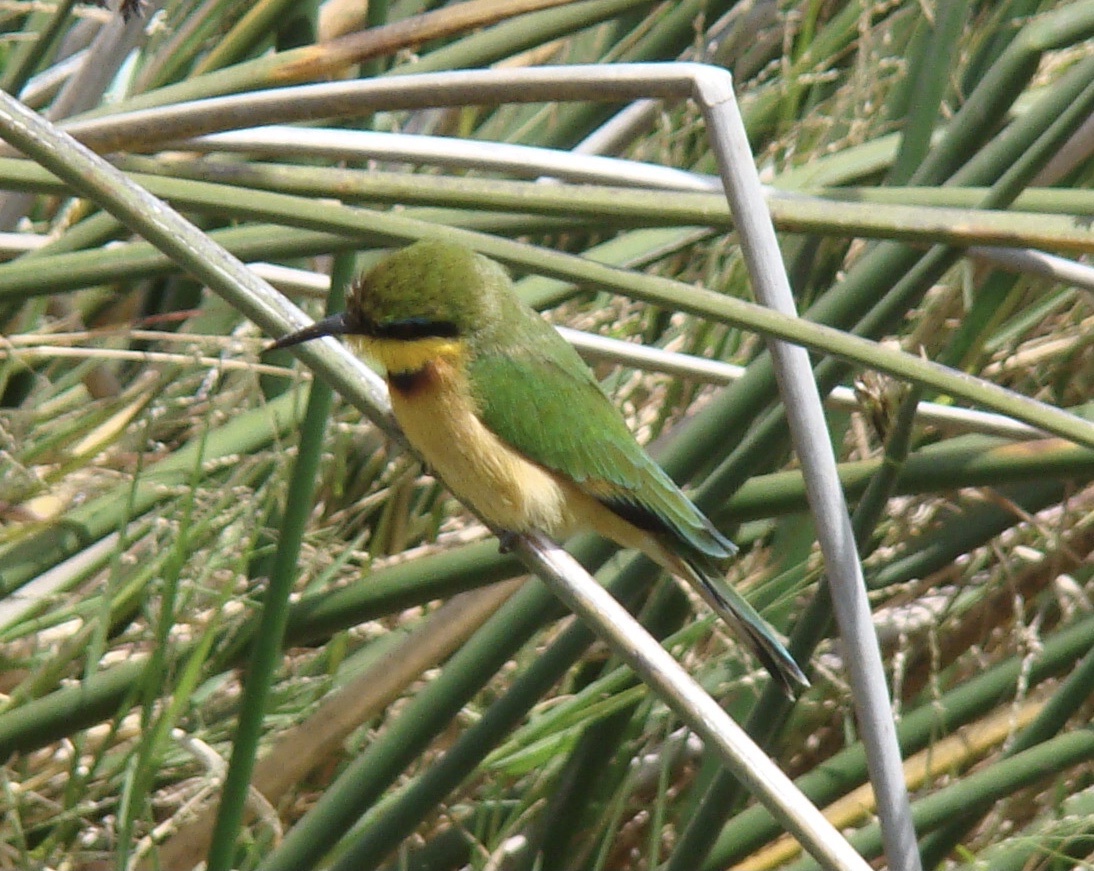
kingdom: Animalia
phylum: Chordata
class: Aves
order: Coraciiformes
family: Meropidae
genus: Merops
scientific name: Merops pusillus
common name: Little bee-eater
